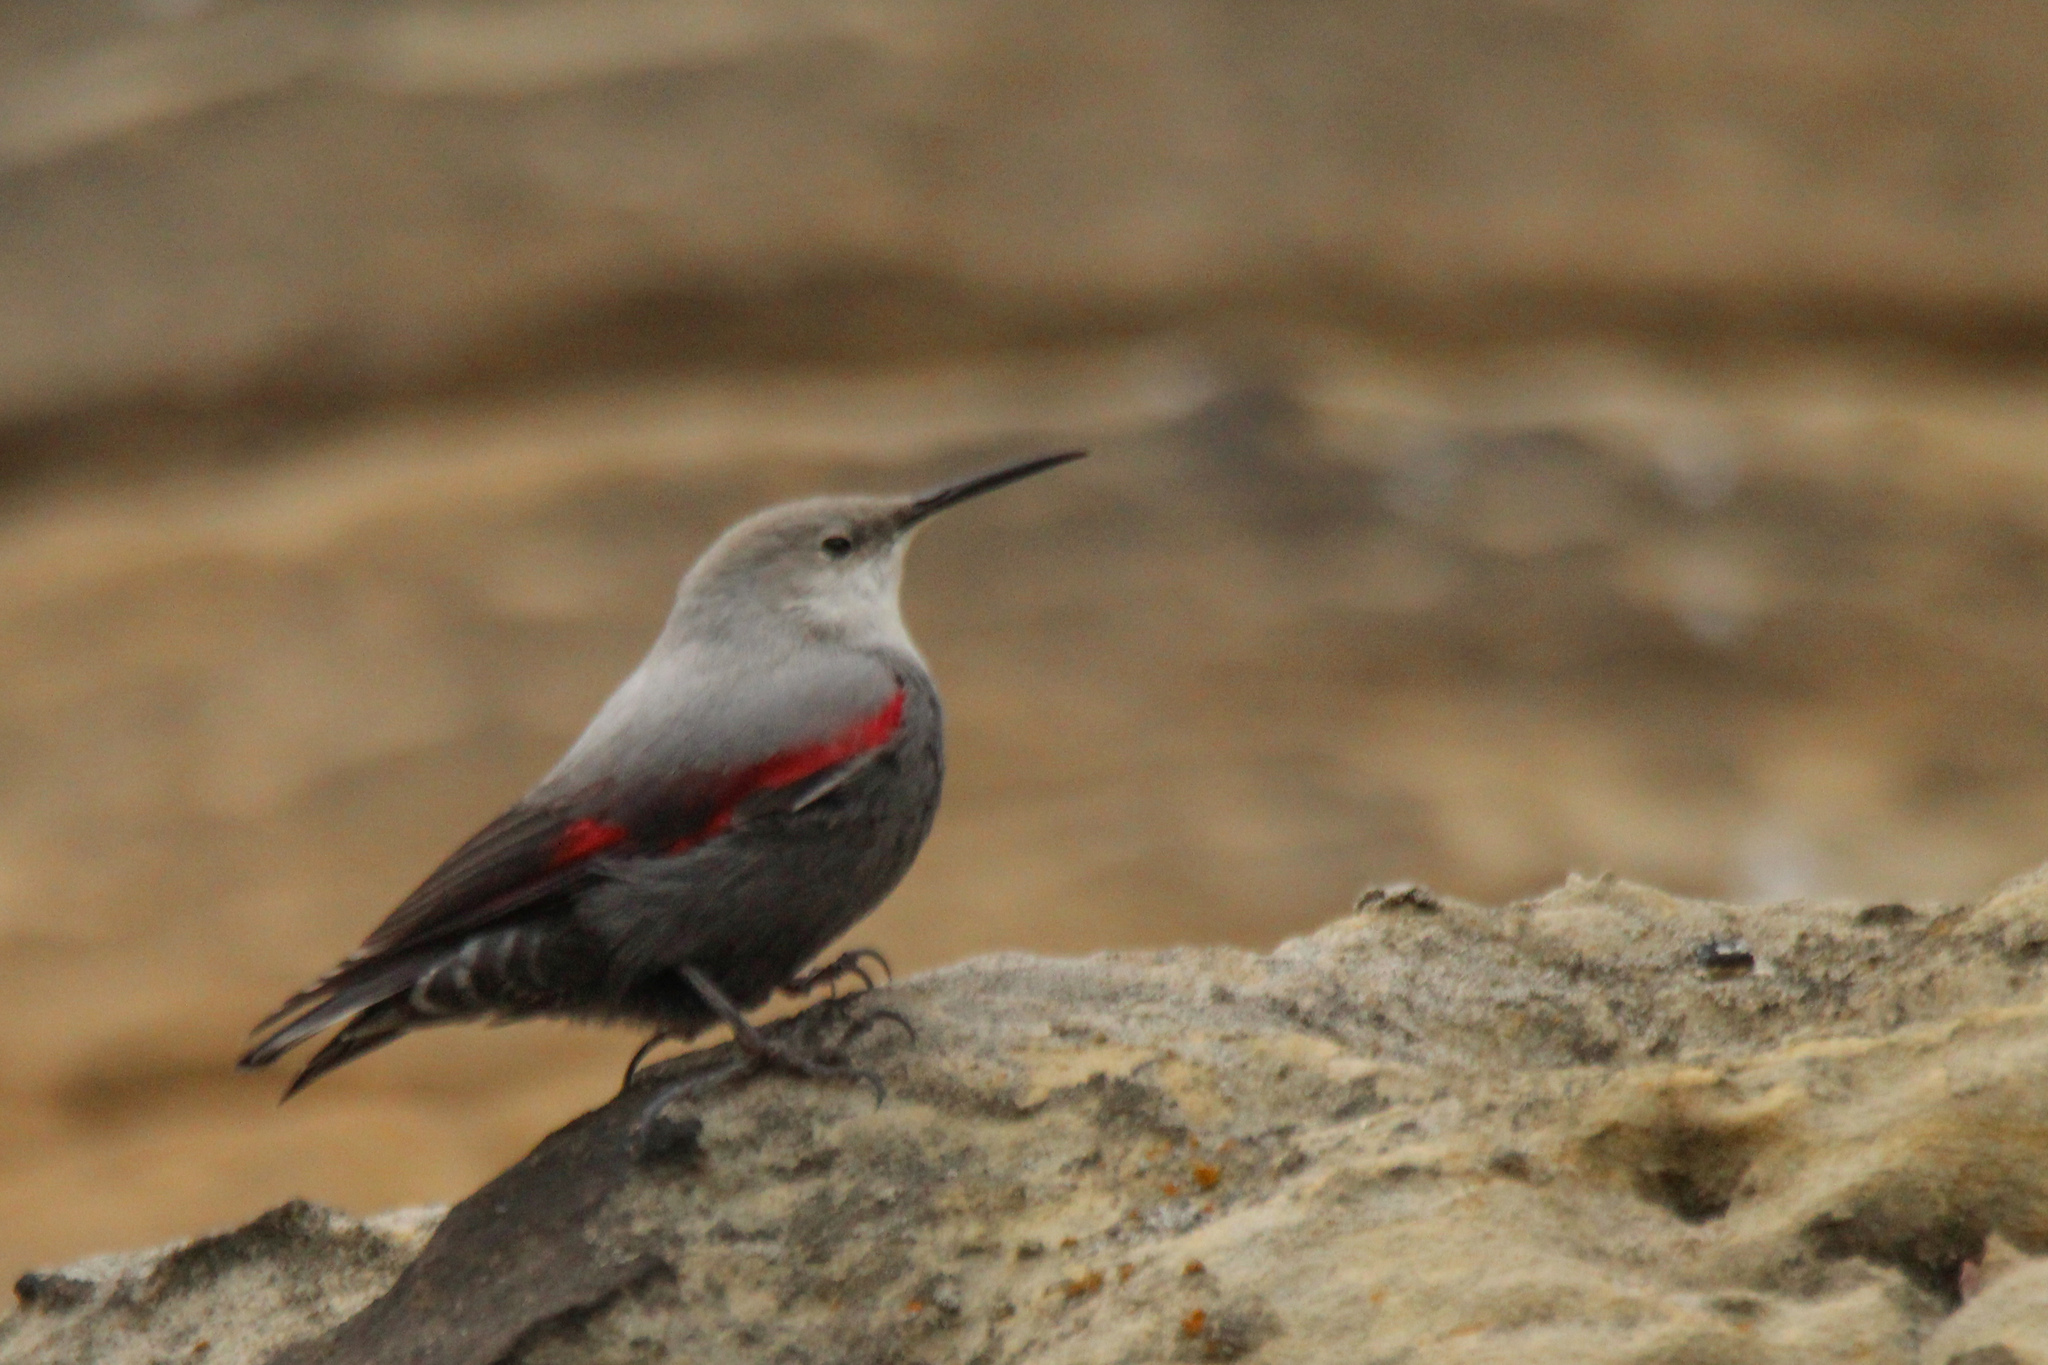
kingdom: Animalia
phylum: Chordata
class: Aves
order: Passeriformes
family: Tichodromidae
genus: Tichodroma
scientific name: Tichodroma muraria
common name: Wallcreeper
